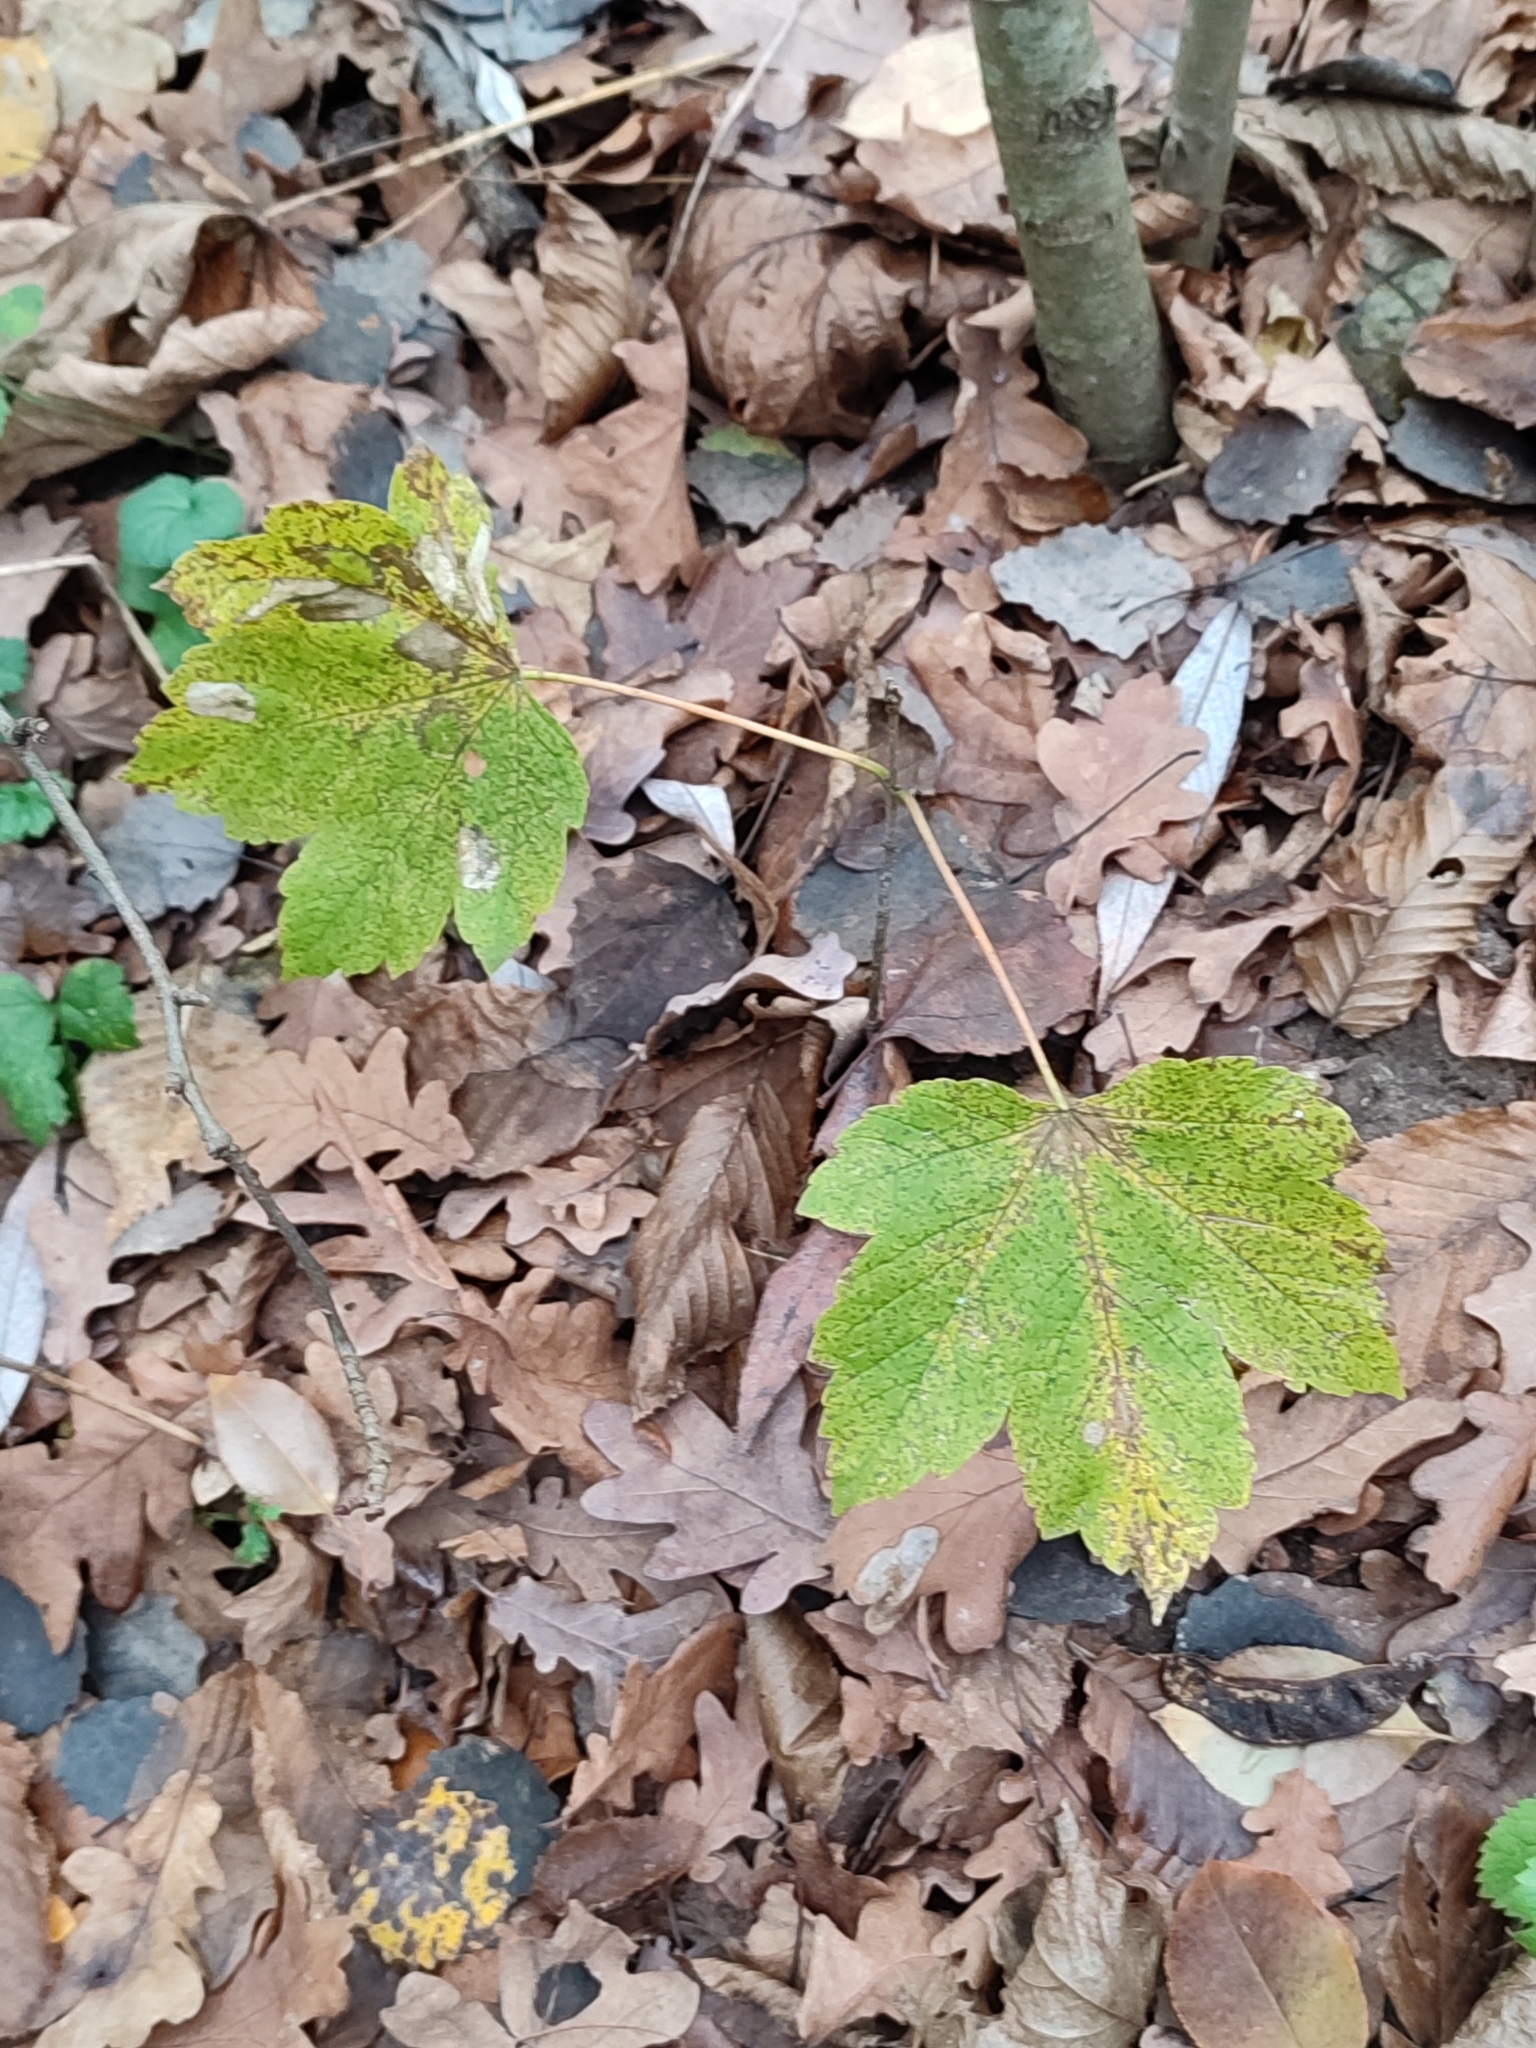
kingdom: Plantae
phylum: Tracheophyta
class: Magnoliopsida
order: Sapindales
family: Sapindaceae
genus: Acer
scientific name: Acer pseudoplatanus
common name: Sycamore
